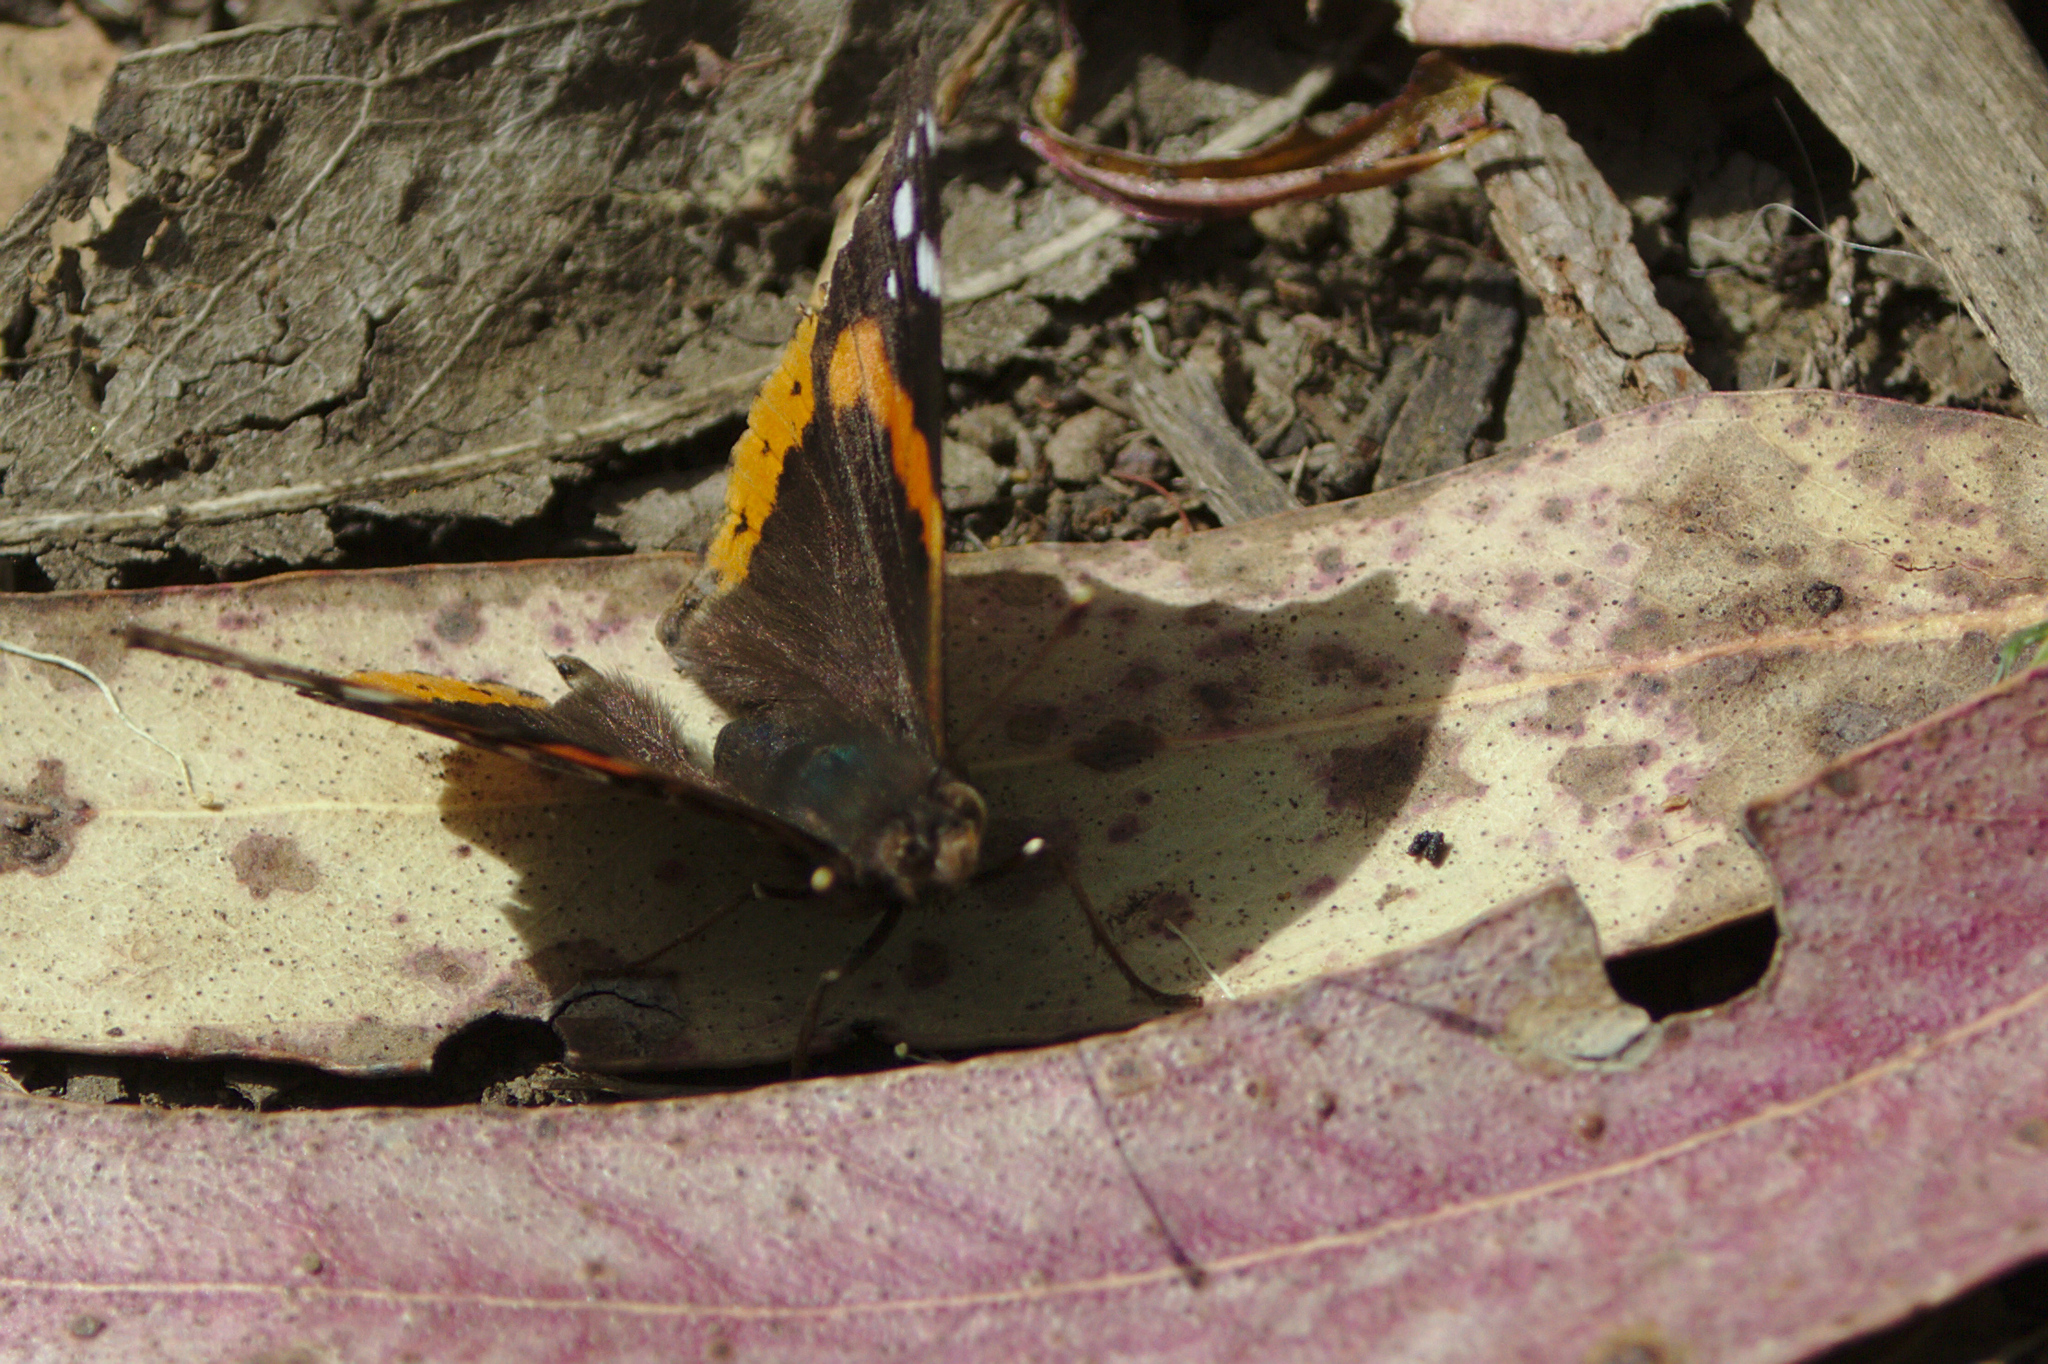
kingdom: Animalia
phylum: Arthropoda
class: Insecta
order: Lepidoptera
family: Nymphalidae
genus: Vanessa
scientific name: Vanessa atalanta
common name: Red admiral
